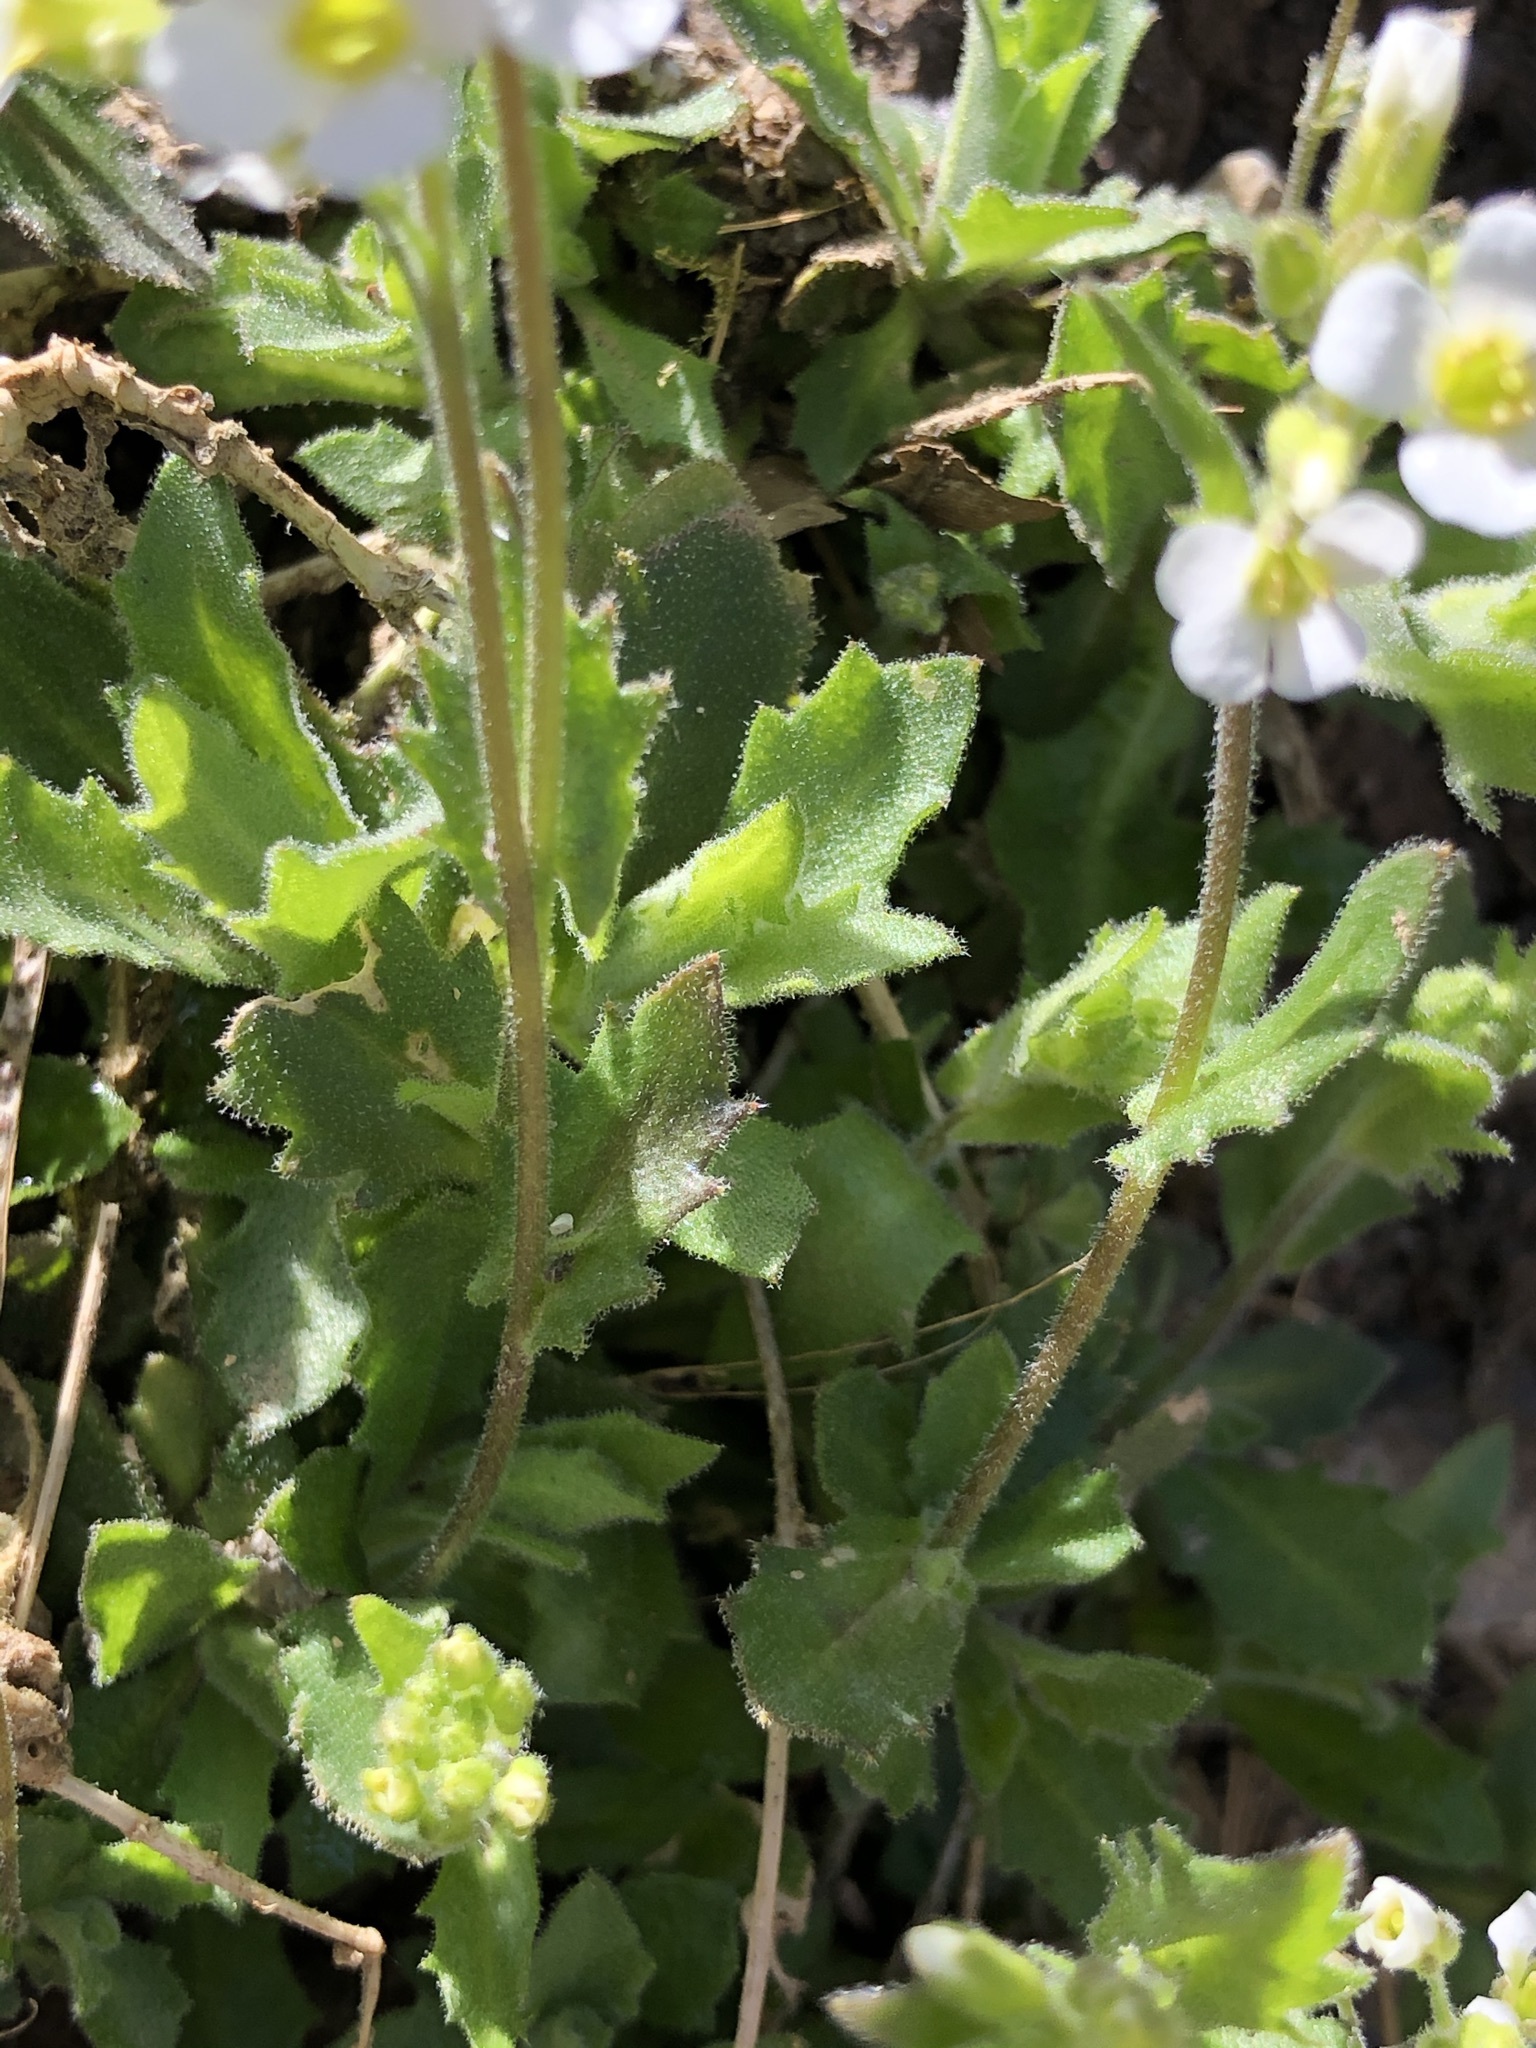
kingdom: Plantae
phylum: Tracheophyta
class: Magnoliopsida
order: Brassicales
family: Brassicaceae
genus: Arabis
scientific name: Arabis alpina
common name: Alpine rock-cress
